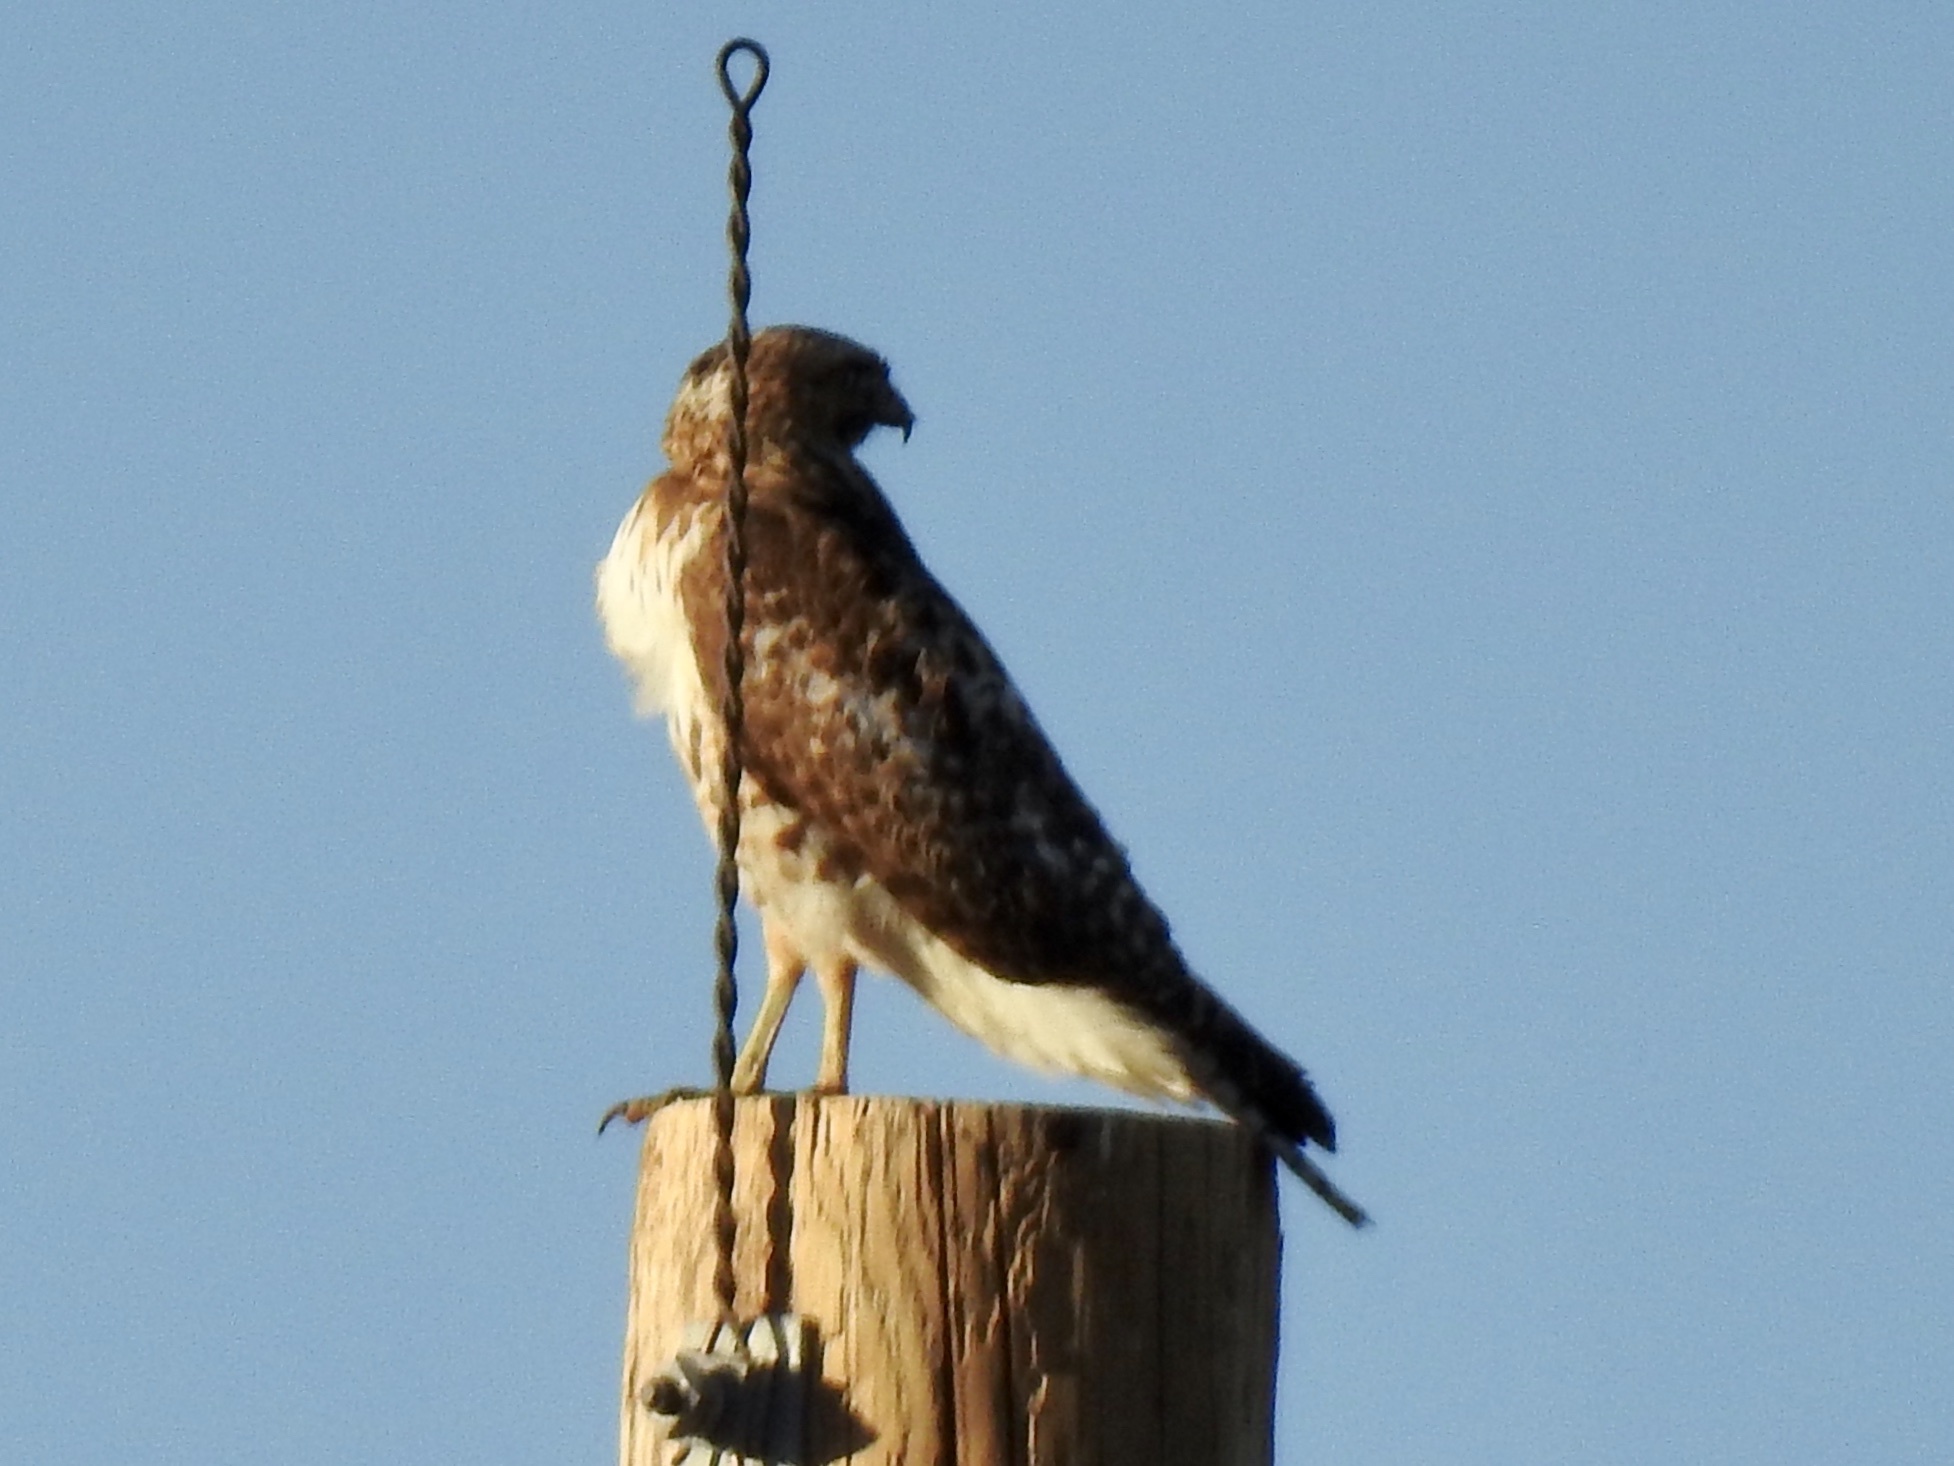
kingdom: Animalia
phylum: Chordata
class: Aves
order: Accipitriformes
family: Accipitridae
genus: Buteo
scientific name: Buteo jamaicensis
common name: Red-tailed hawk
